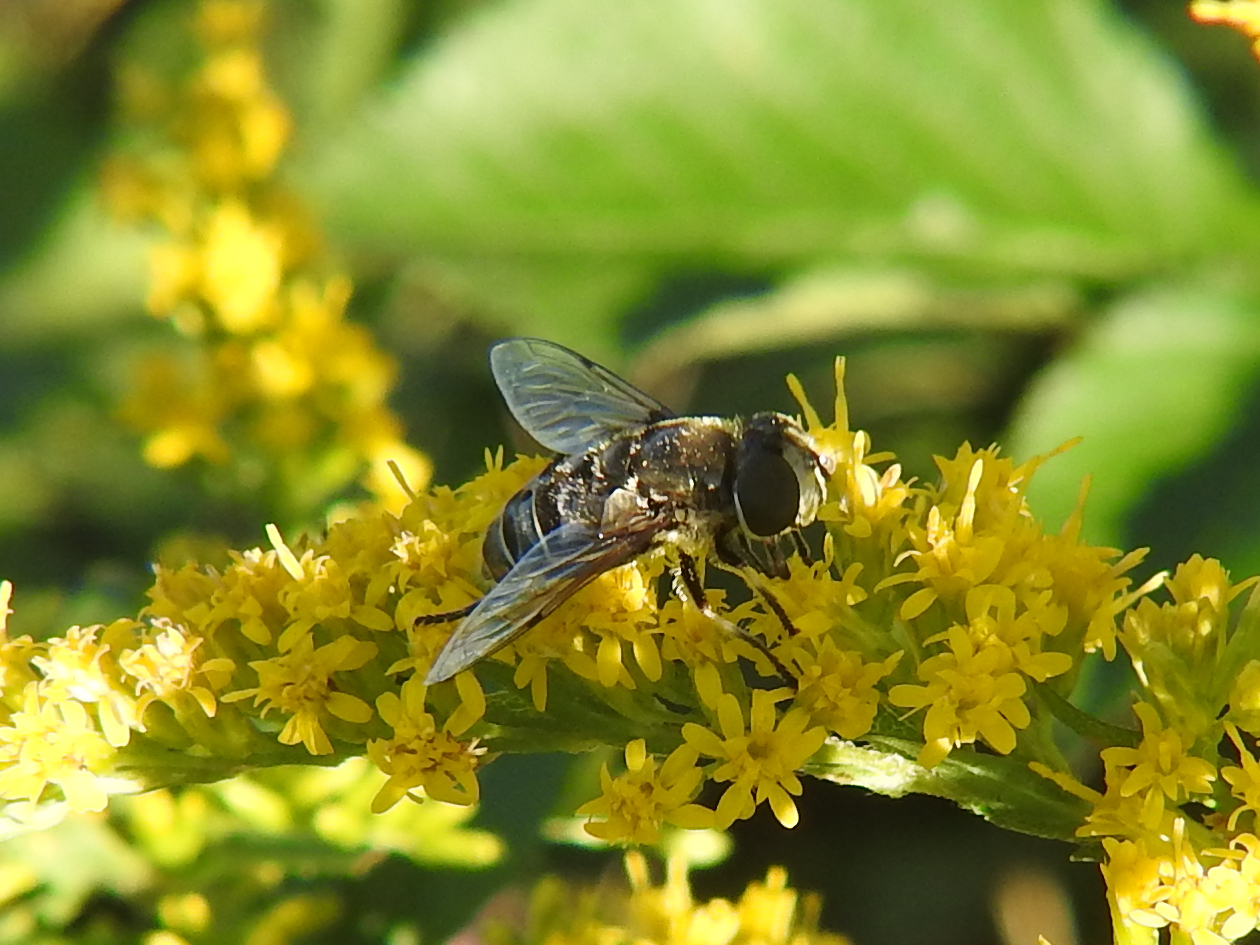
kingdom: Animalia
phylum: Arthropoda
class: Insecta
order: Diptera
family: Syrphidae
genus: Eristalis
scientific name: Eristalis dimidiata
